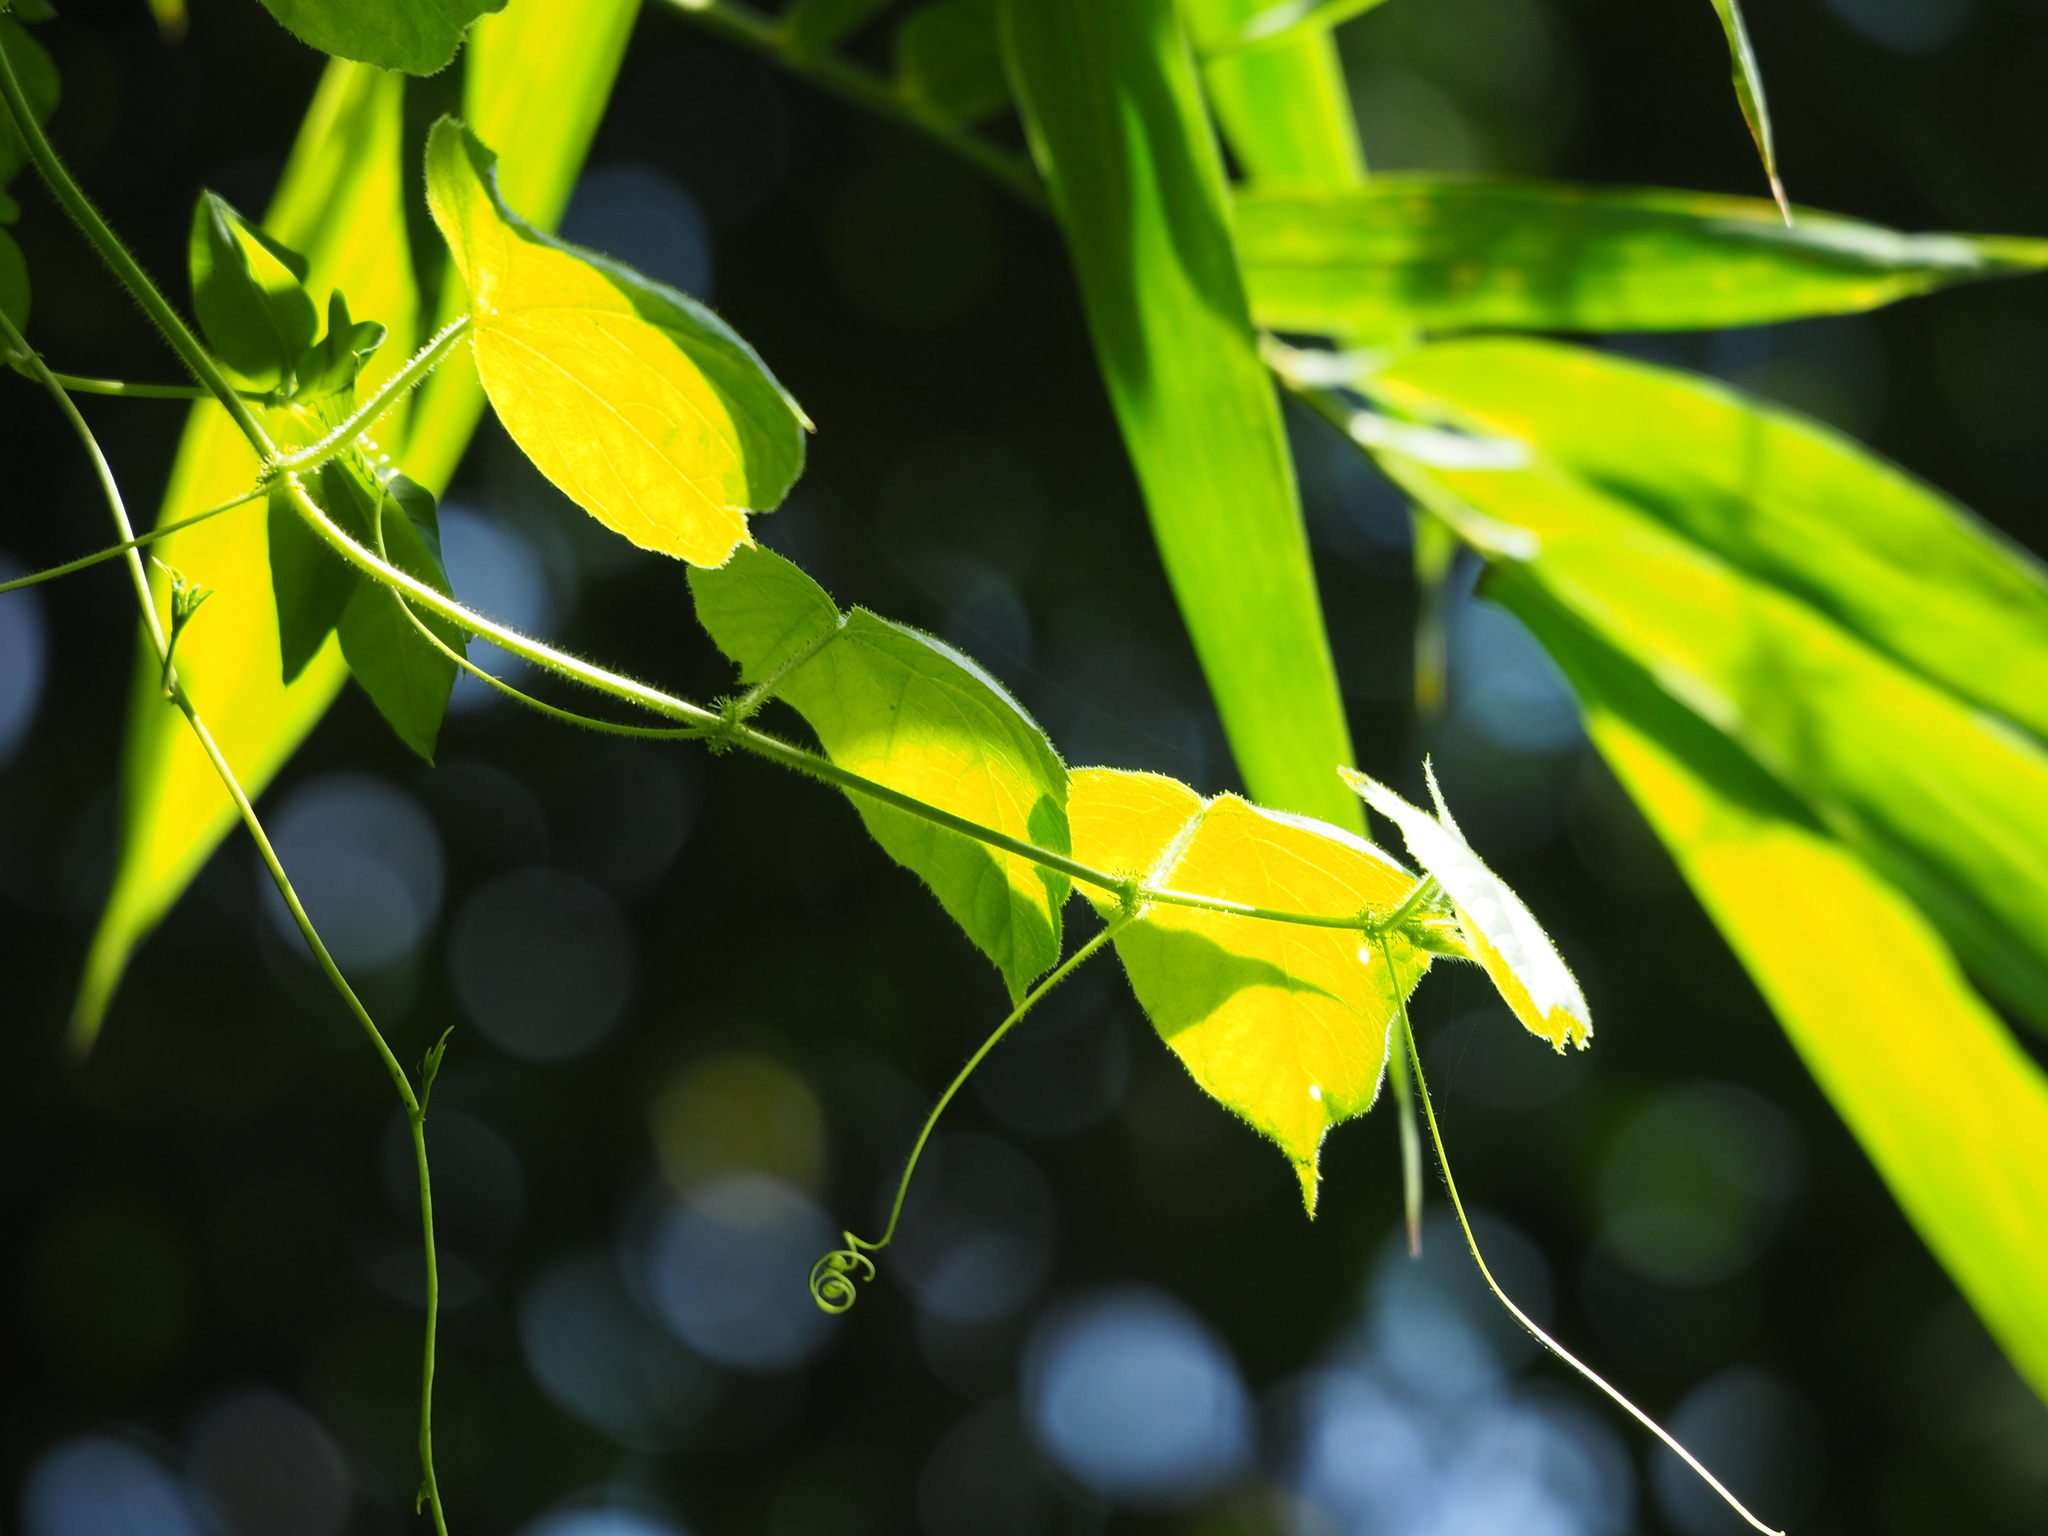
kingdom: Plantae
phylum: Tracheophyta
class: Magnoliopsida
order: Vitales
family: Vitaceae
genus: Cissus
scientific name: Cissus modeccoides
